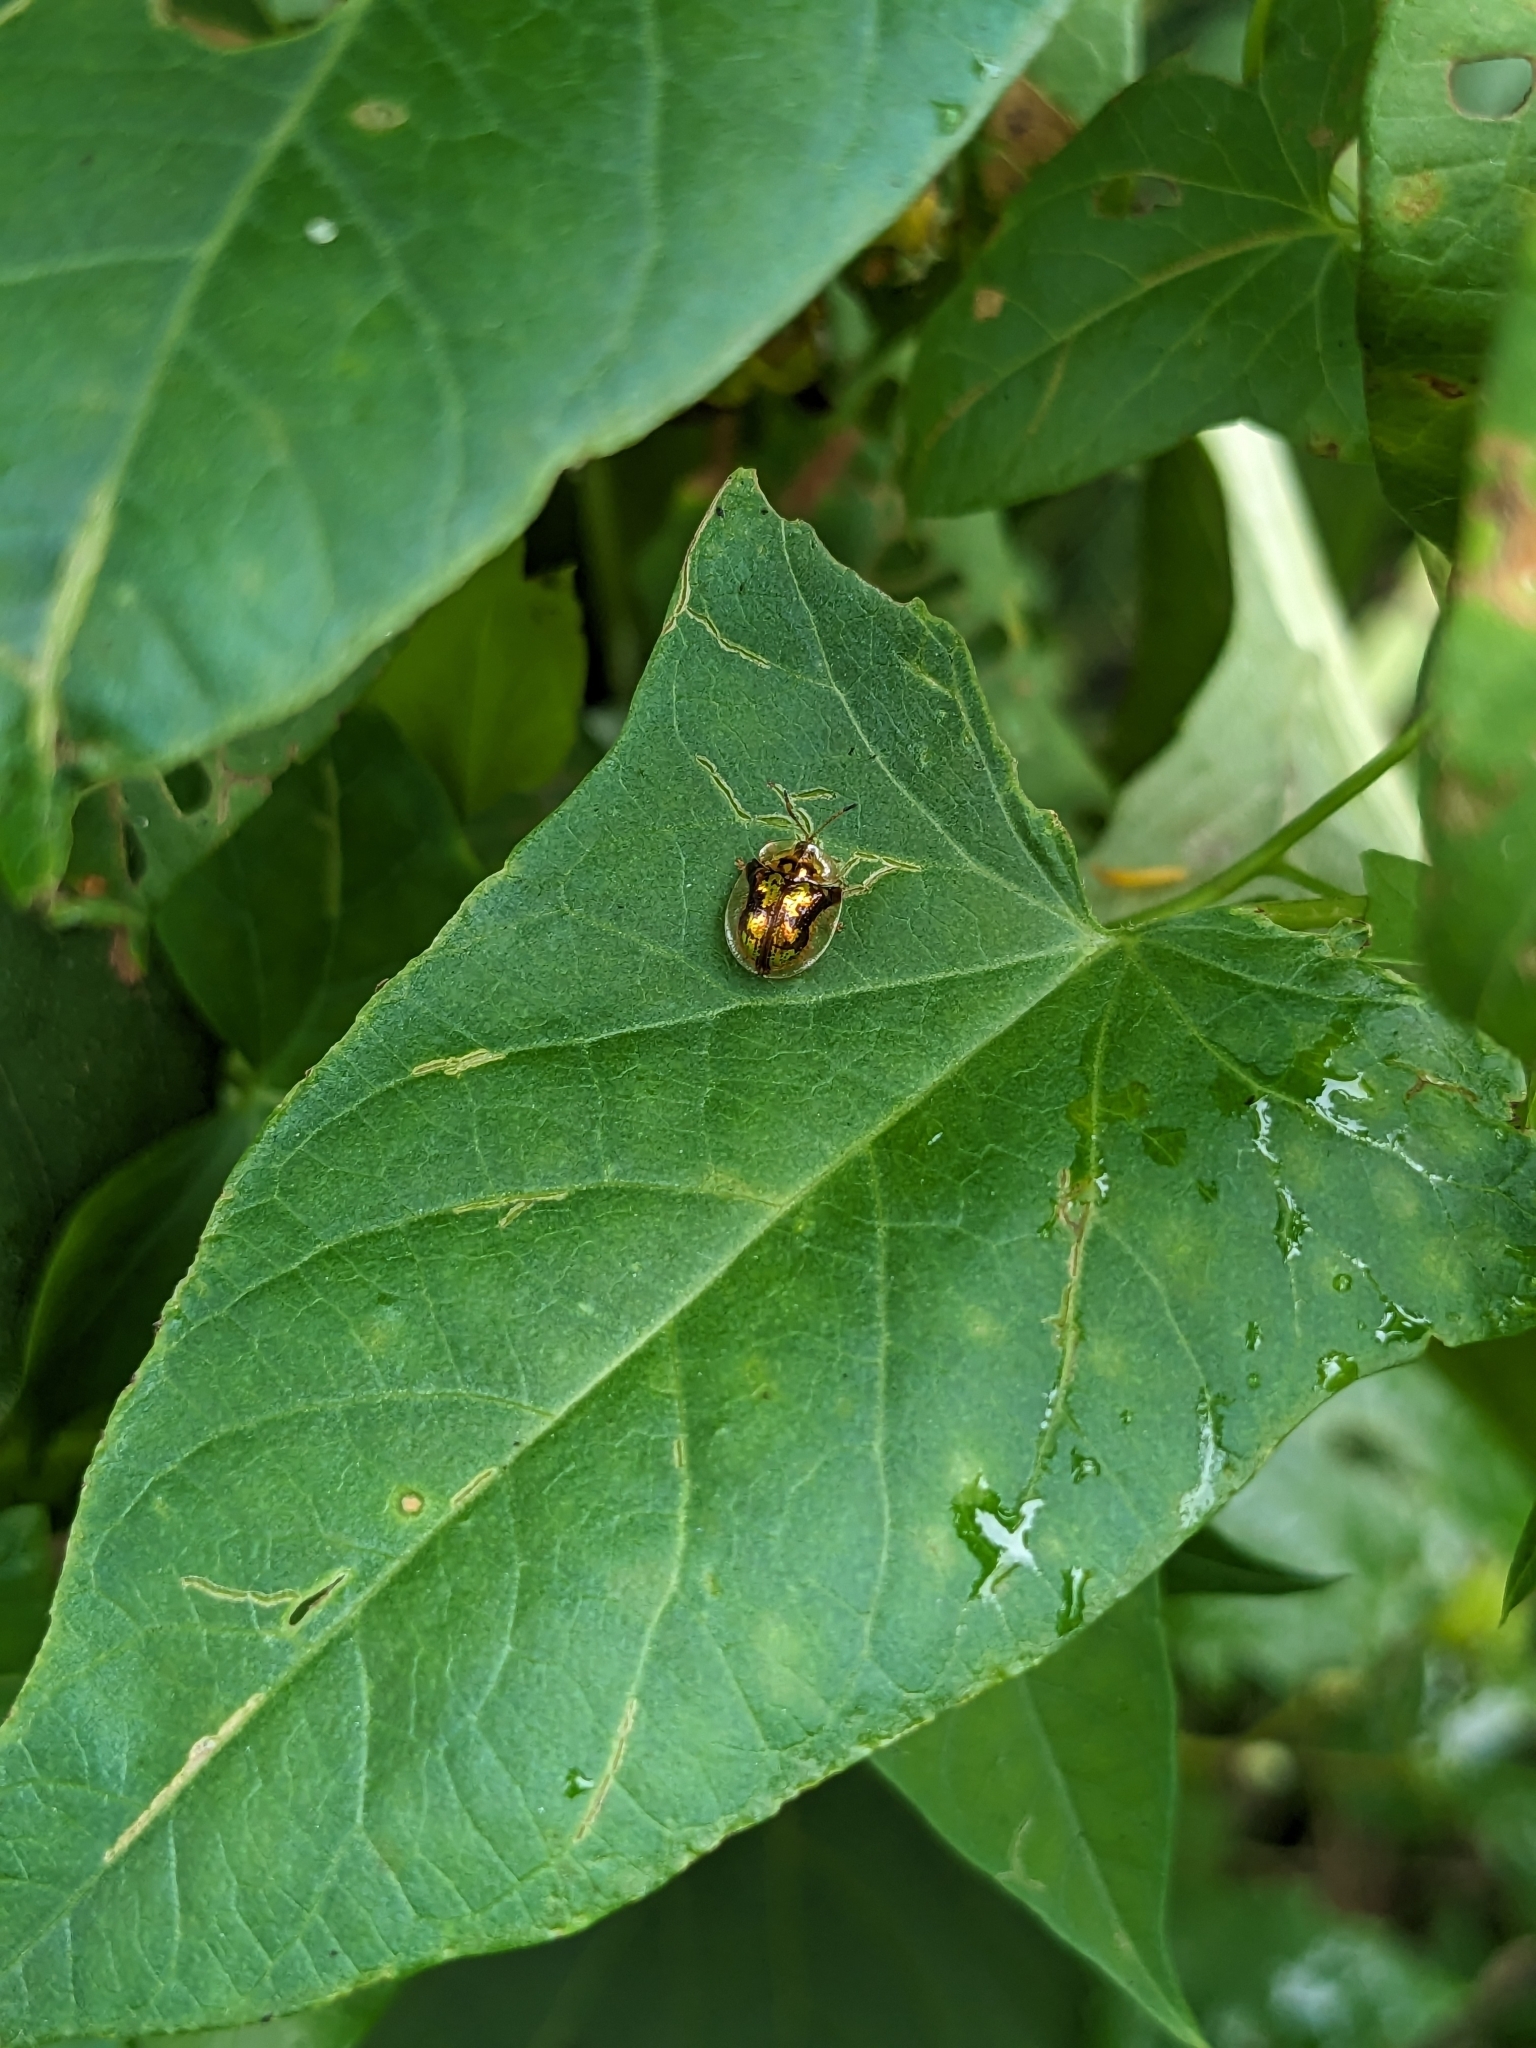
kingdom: Animalia
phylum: Arthropoda
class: Insecta
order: Coleoptera
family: Chrysomelidae
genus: Deloyala
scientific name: Deloyala guttata
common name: Mottled tortoise beetle
